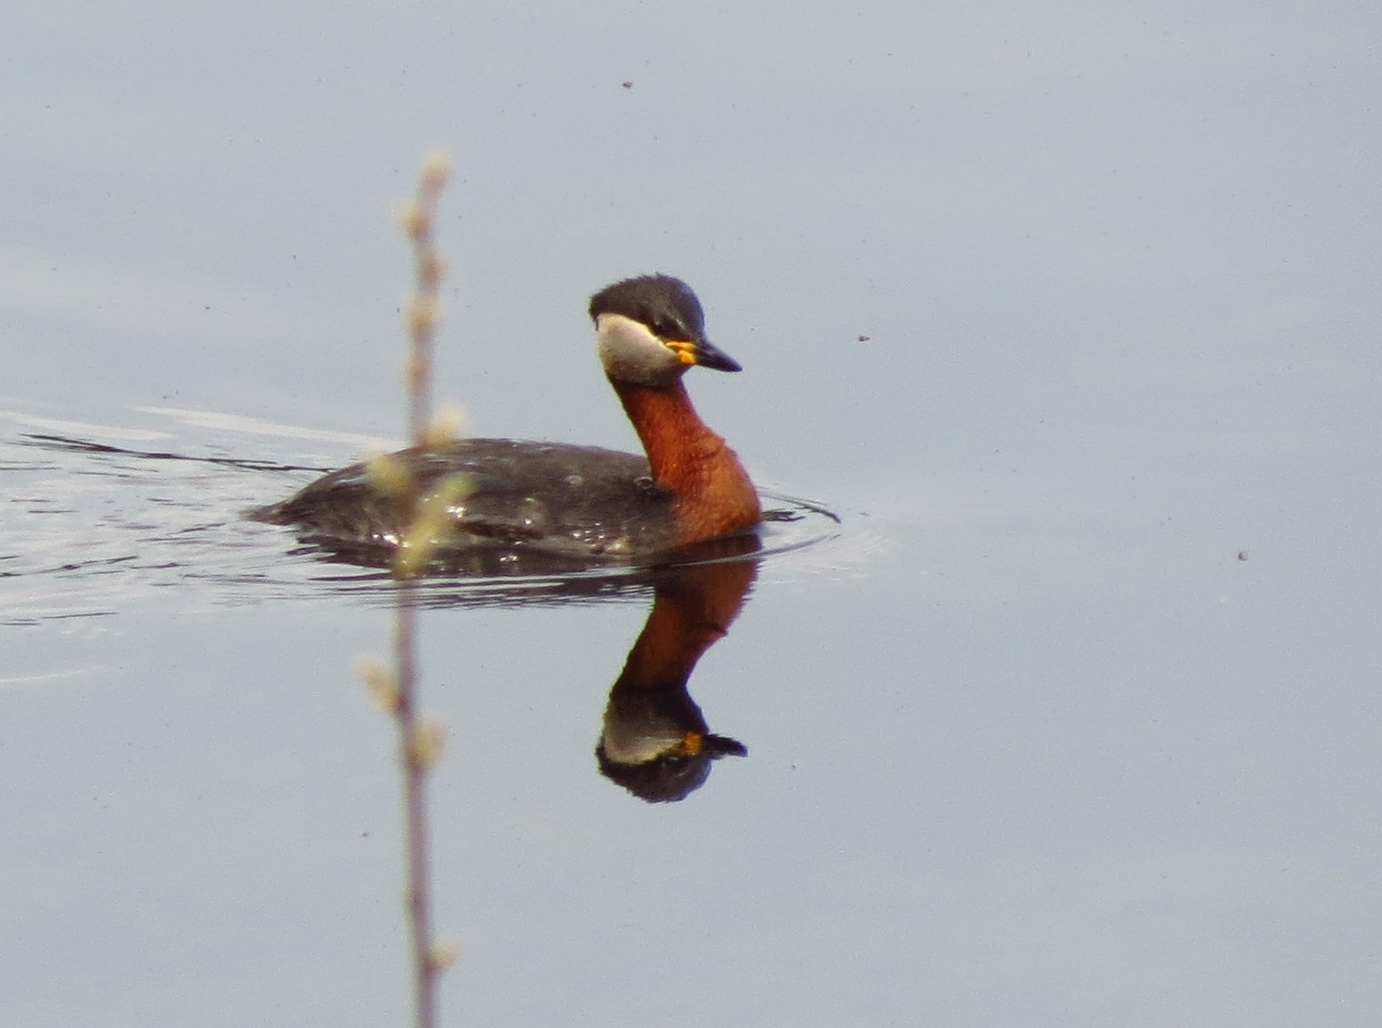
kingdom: Animalia
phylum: Chordata
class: Aves
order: Podicipediformes
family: Podicipedidae
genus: Podiceps
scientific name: Podiceps grisegena
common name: Red-necked grebe
